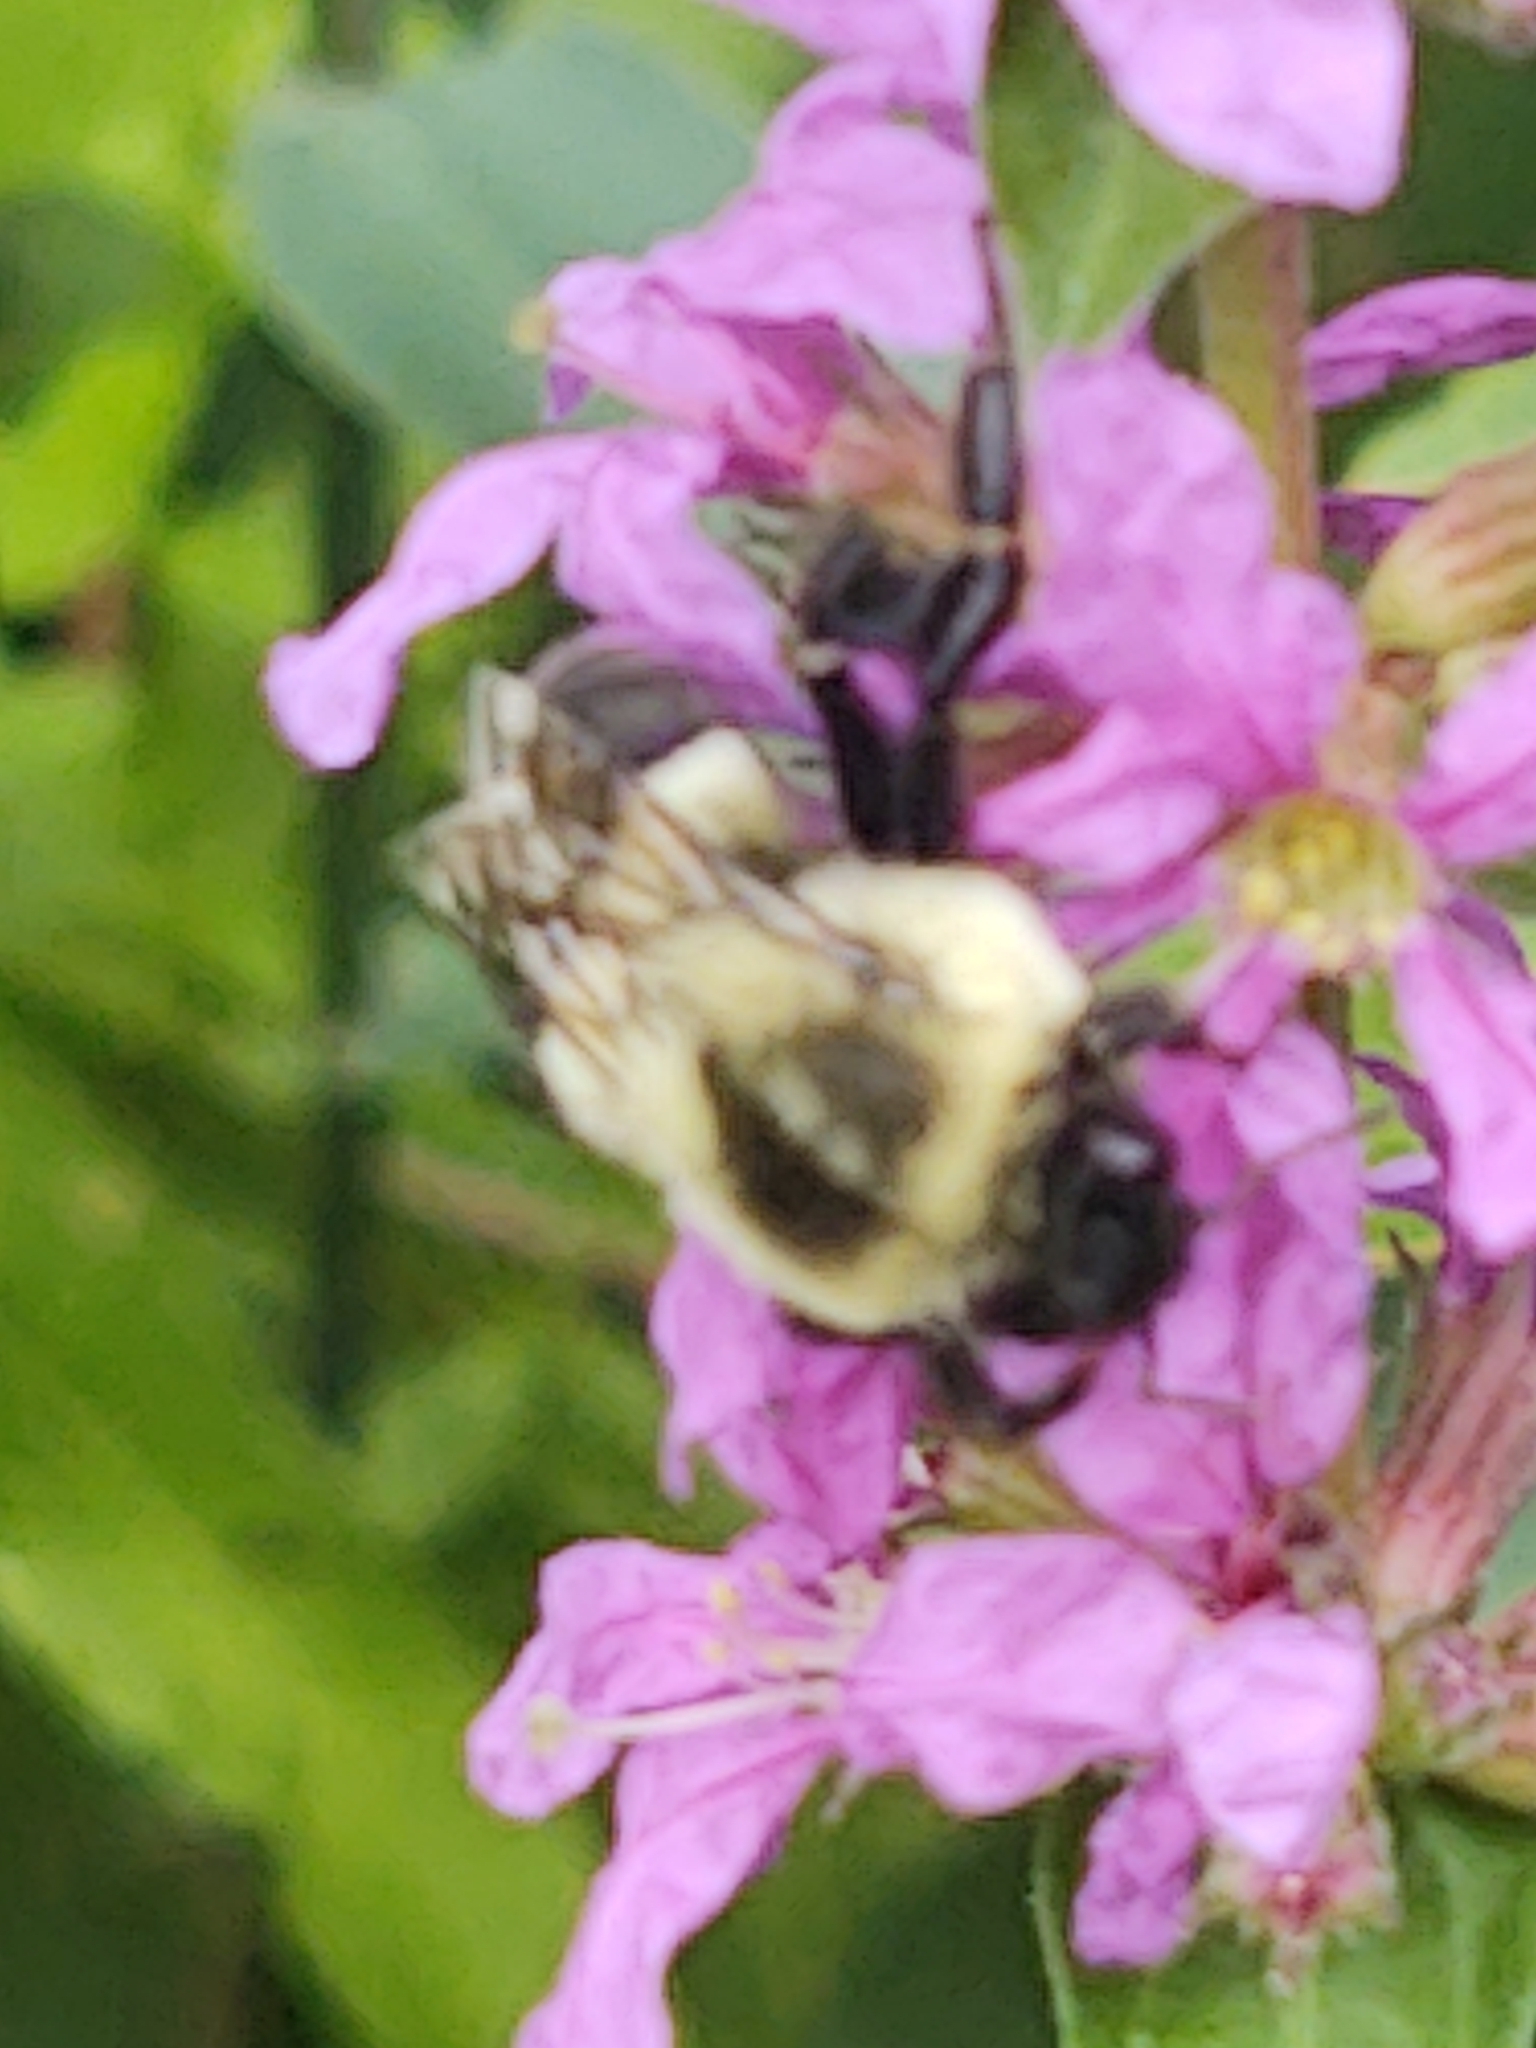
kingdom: Animalia
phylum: Arthropoda
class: Insecta
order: Hymenoptera
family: Apidae
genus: Bombus
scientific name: Bombus impatiens
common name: Common eastern bumble bee
